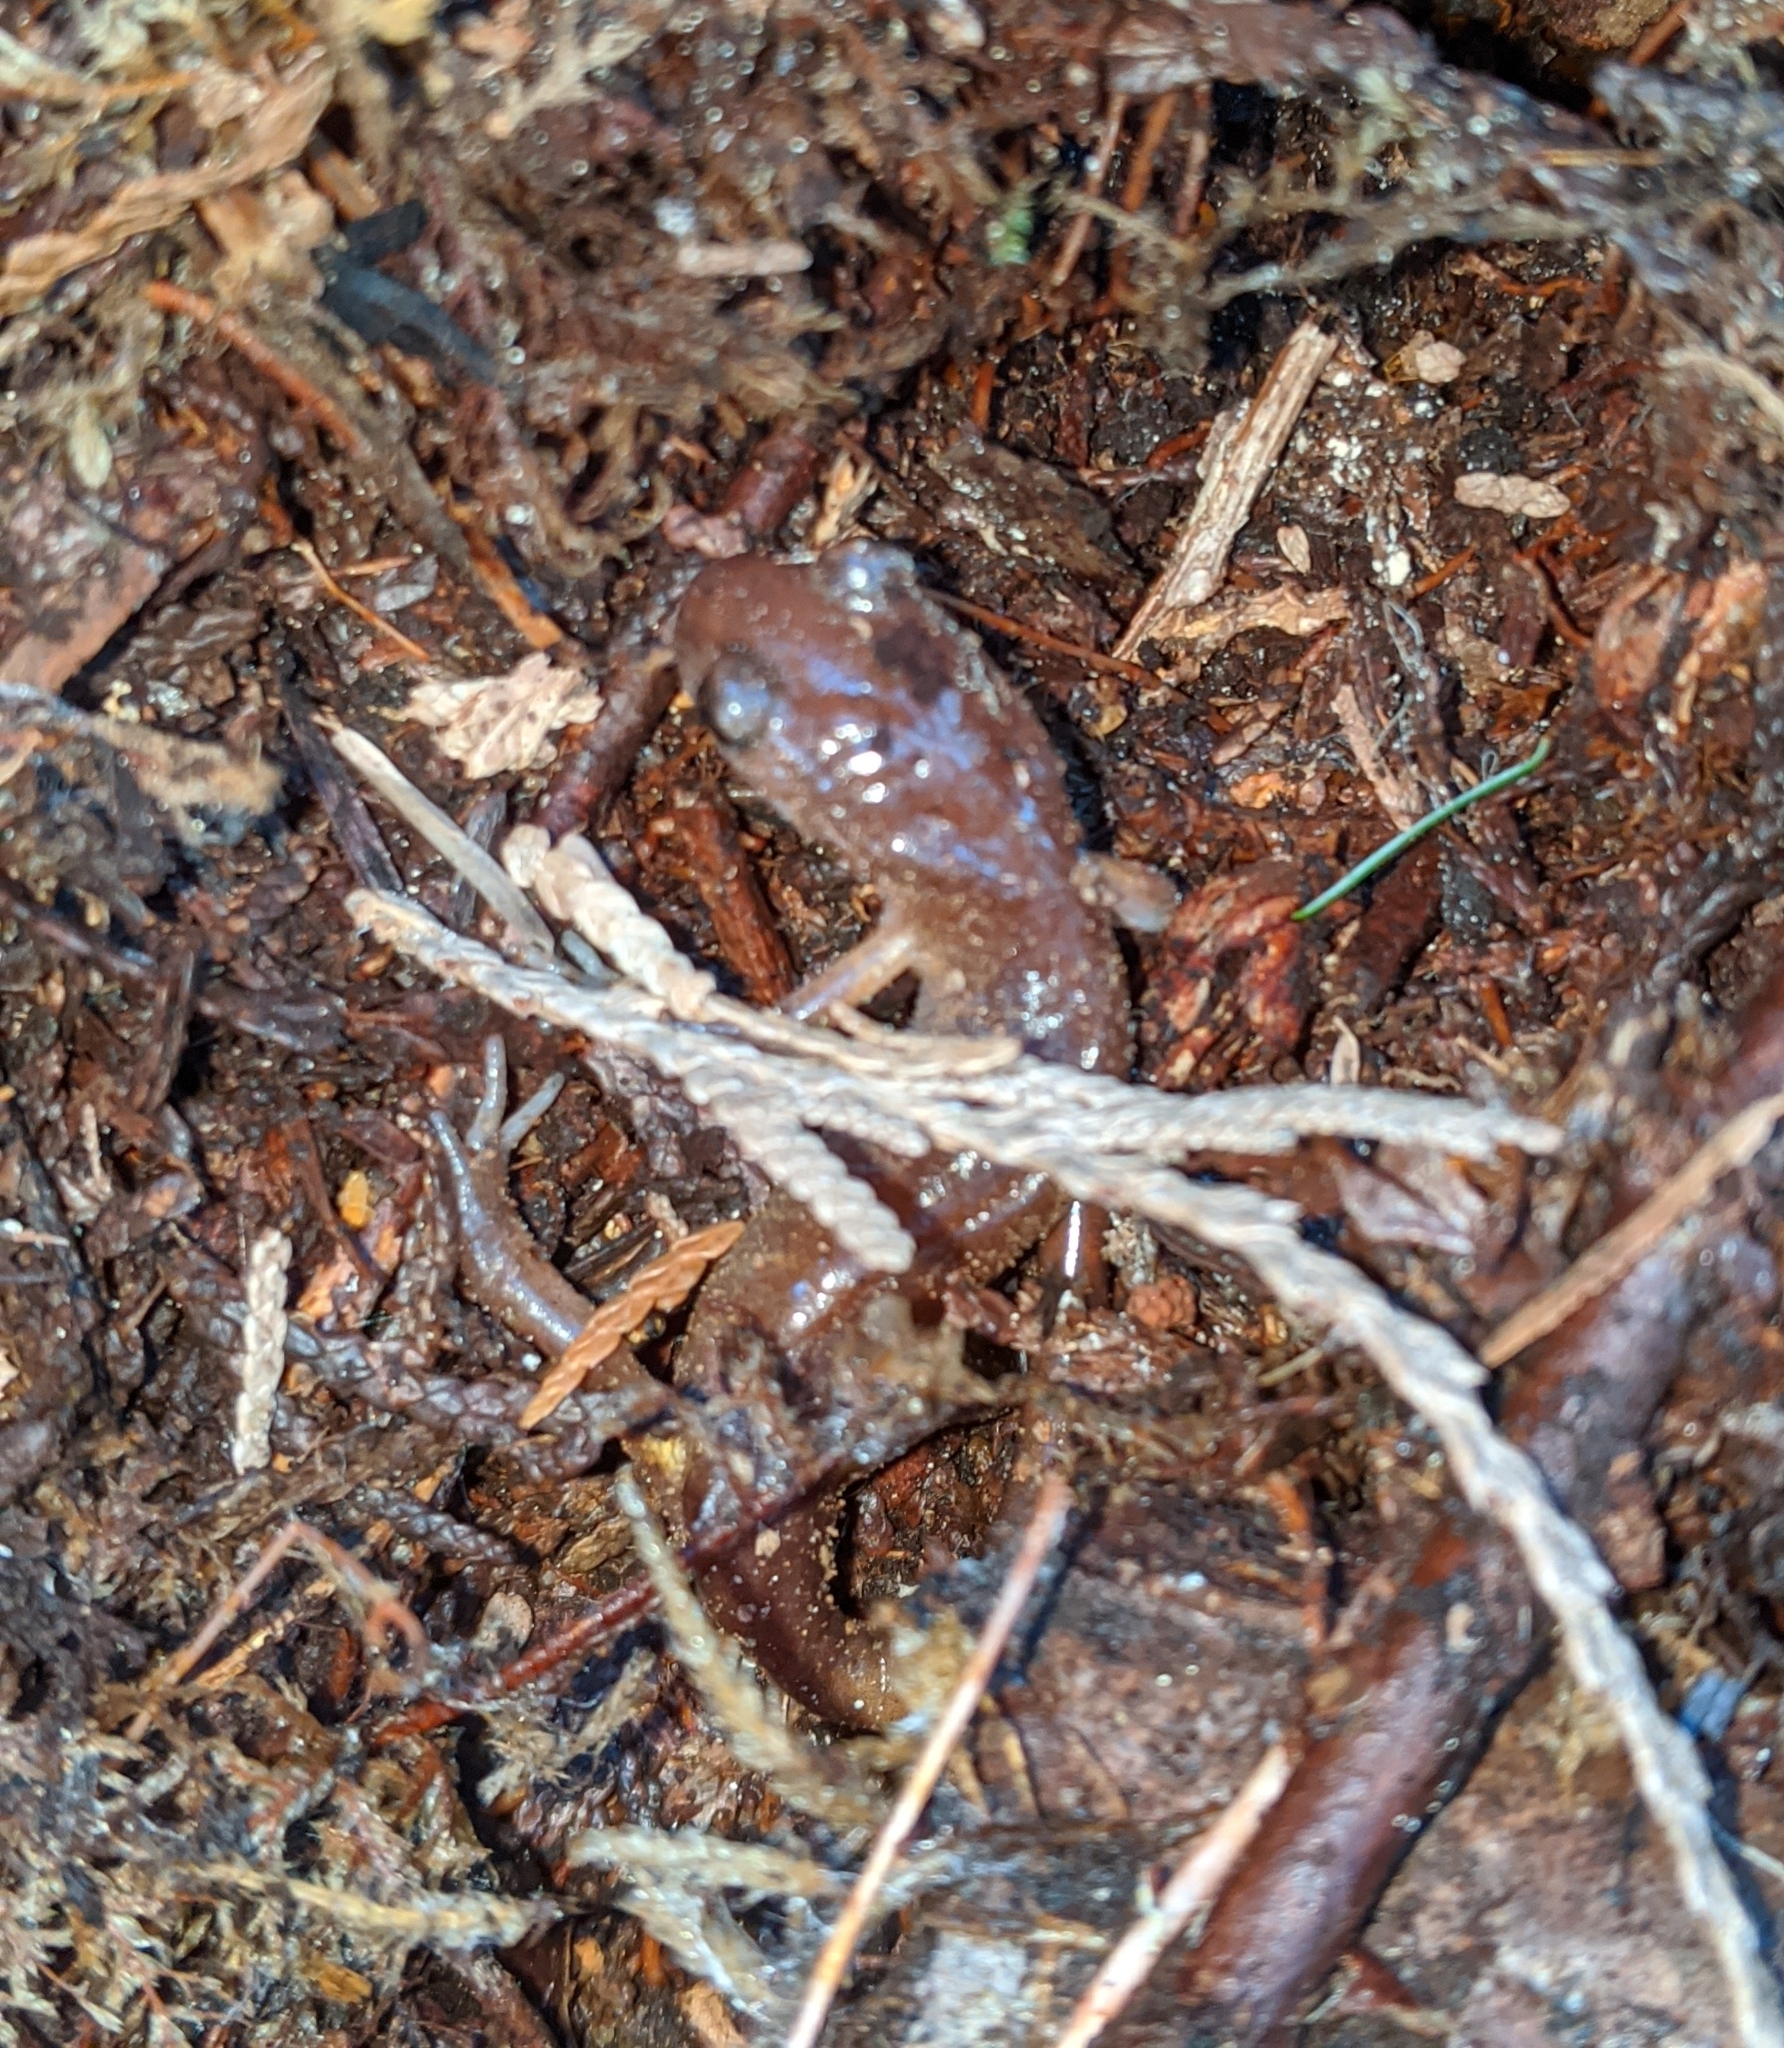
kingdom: Animalia
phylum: Chordata
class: Amphibia
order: Caudata
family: Plethodontidae
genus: Ensatina
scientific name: Ensatina eschscholtzii
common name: Ensatina
